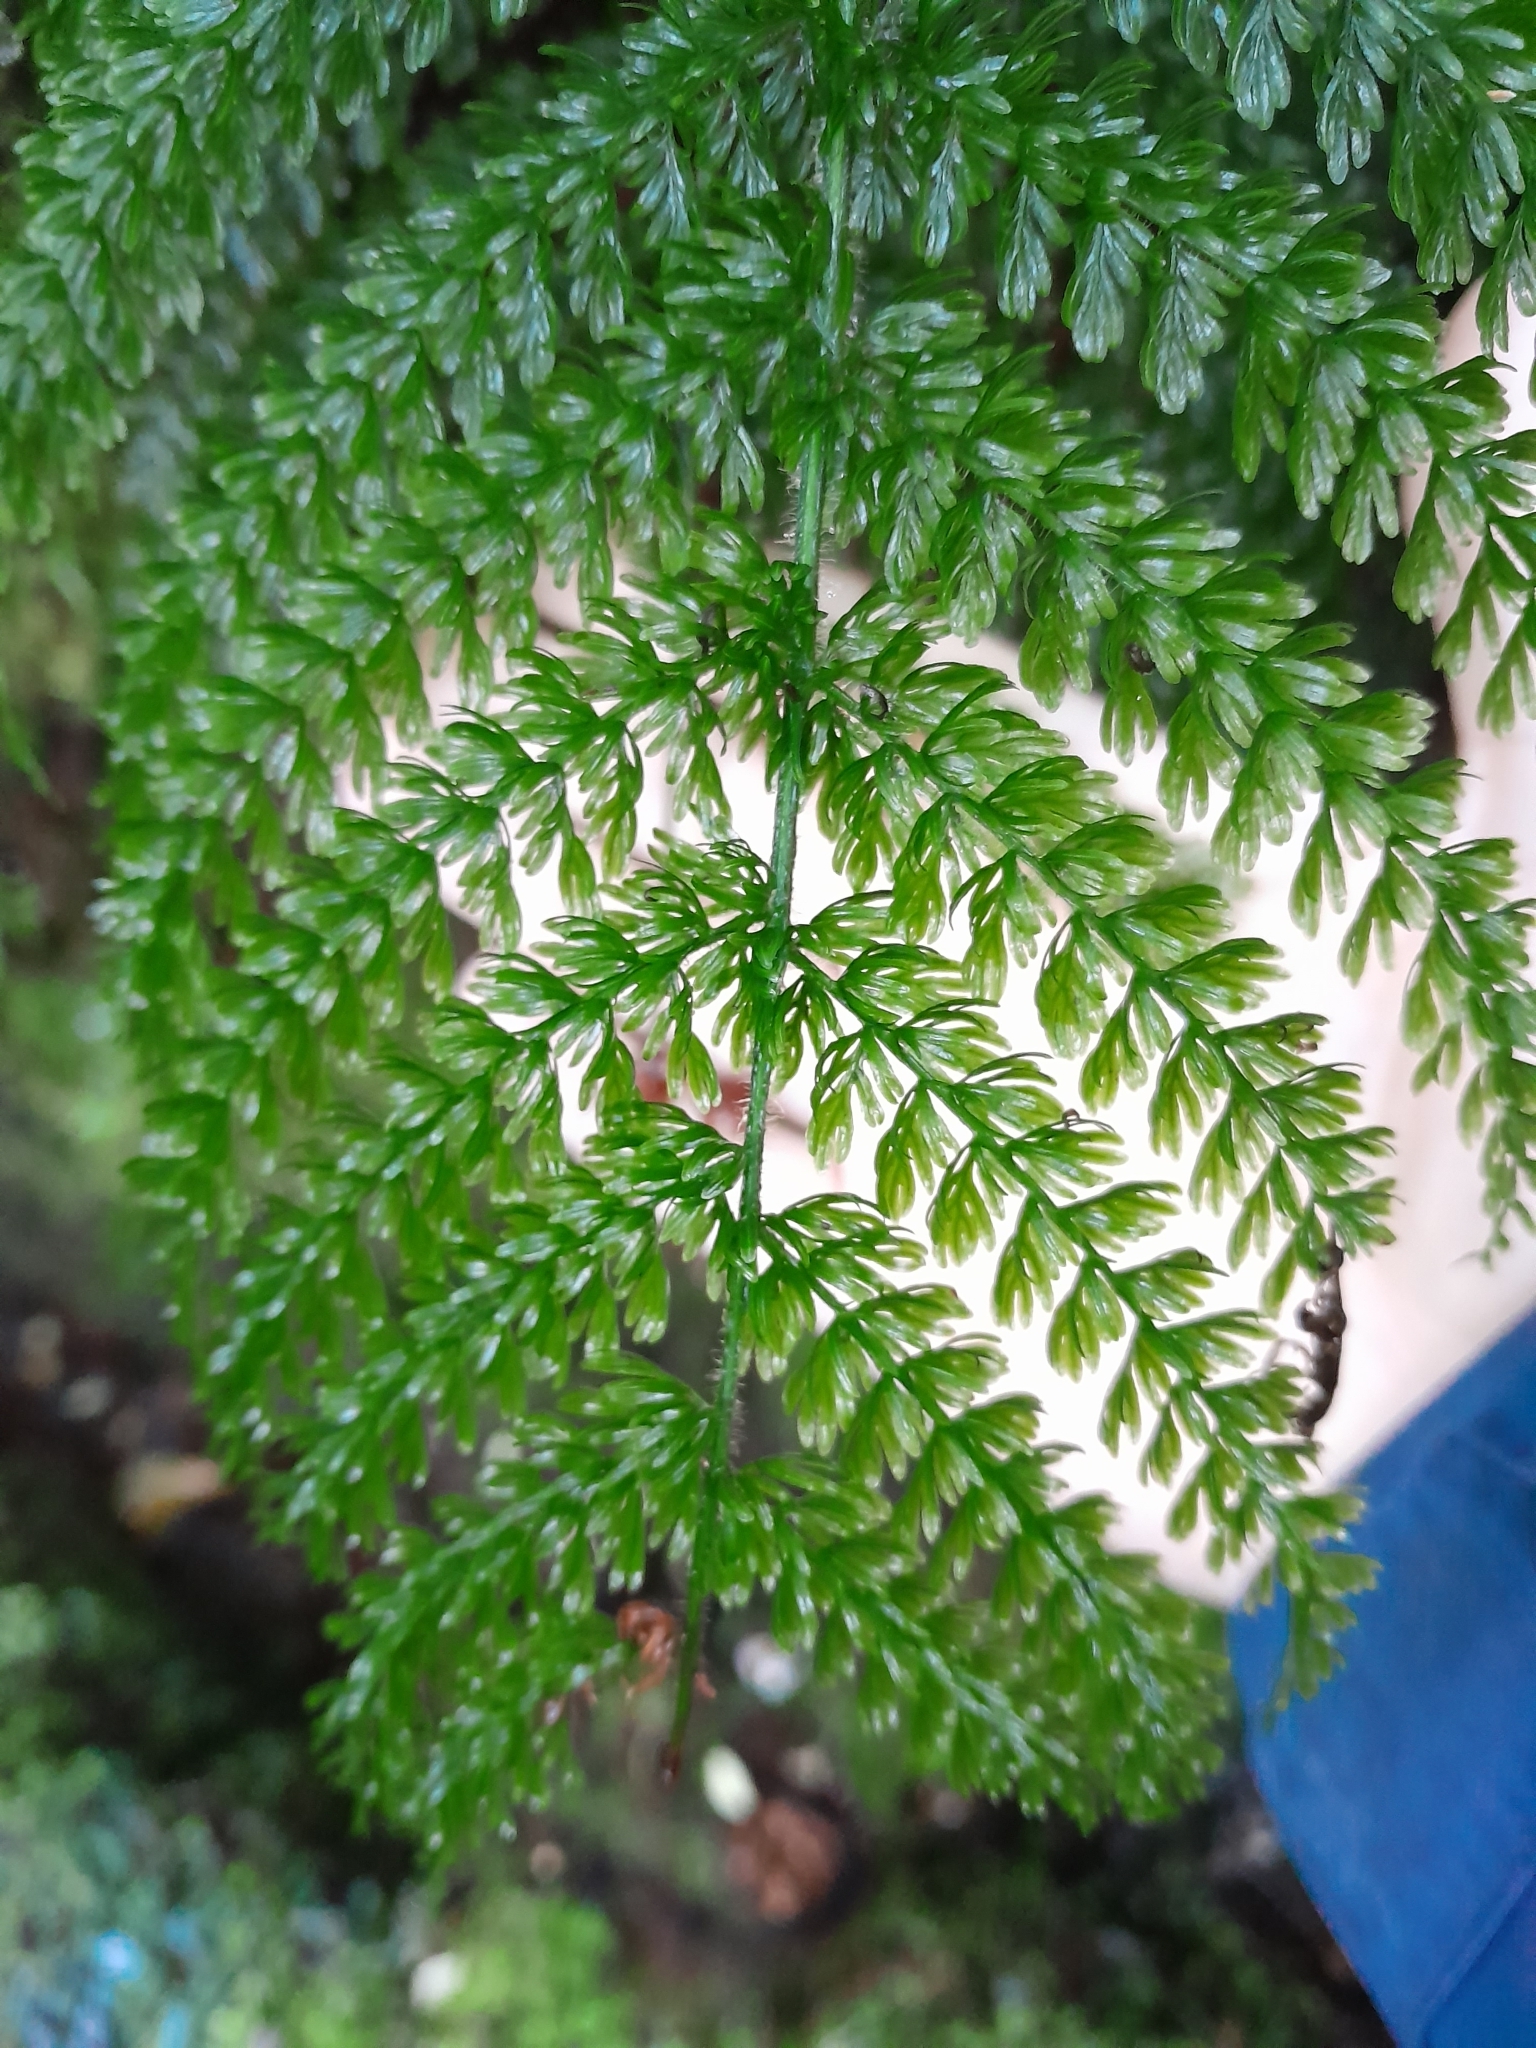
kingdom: Plantae
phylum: Tracheophyta
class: Polypodiopsida
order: Osmundales
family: Osmundaceae
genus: Leptopteris
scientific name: Leptopteris superba
